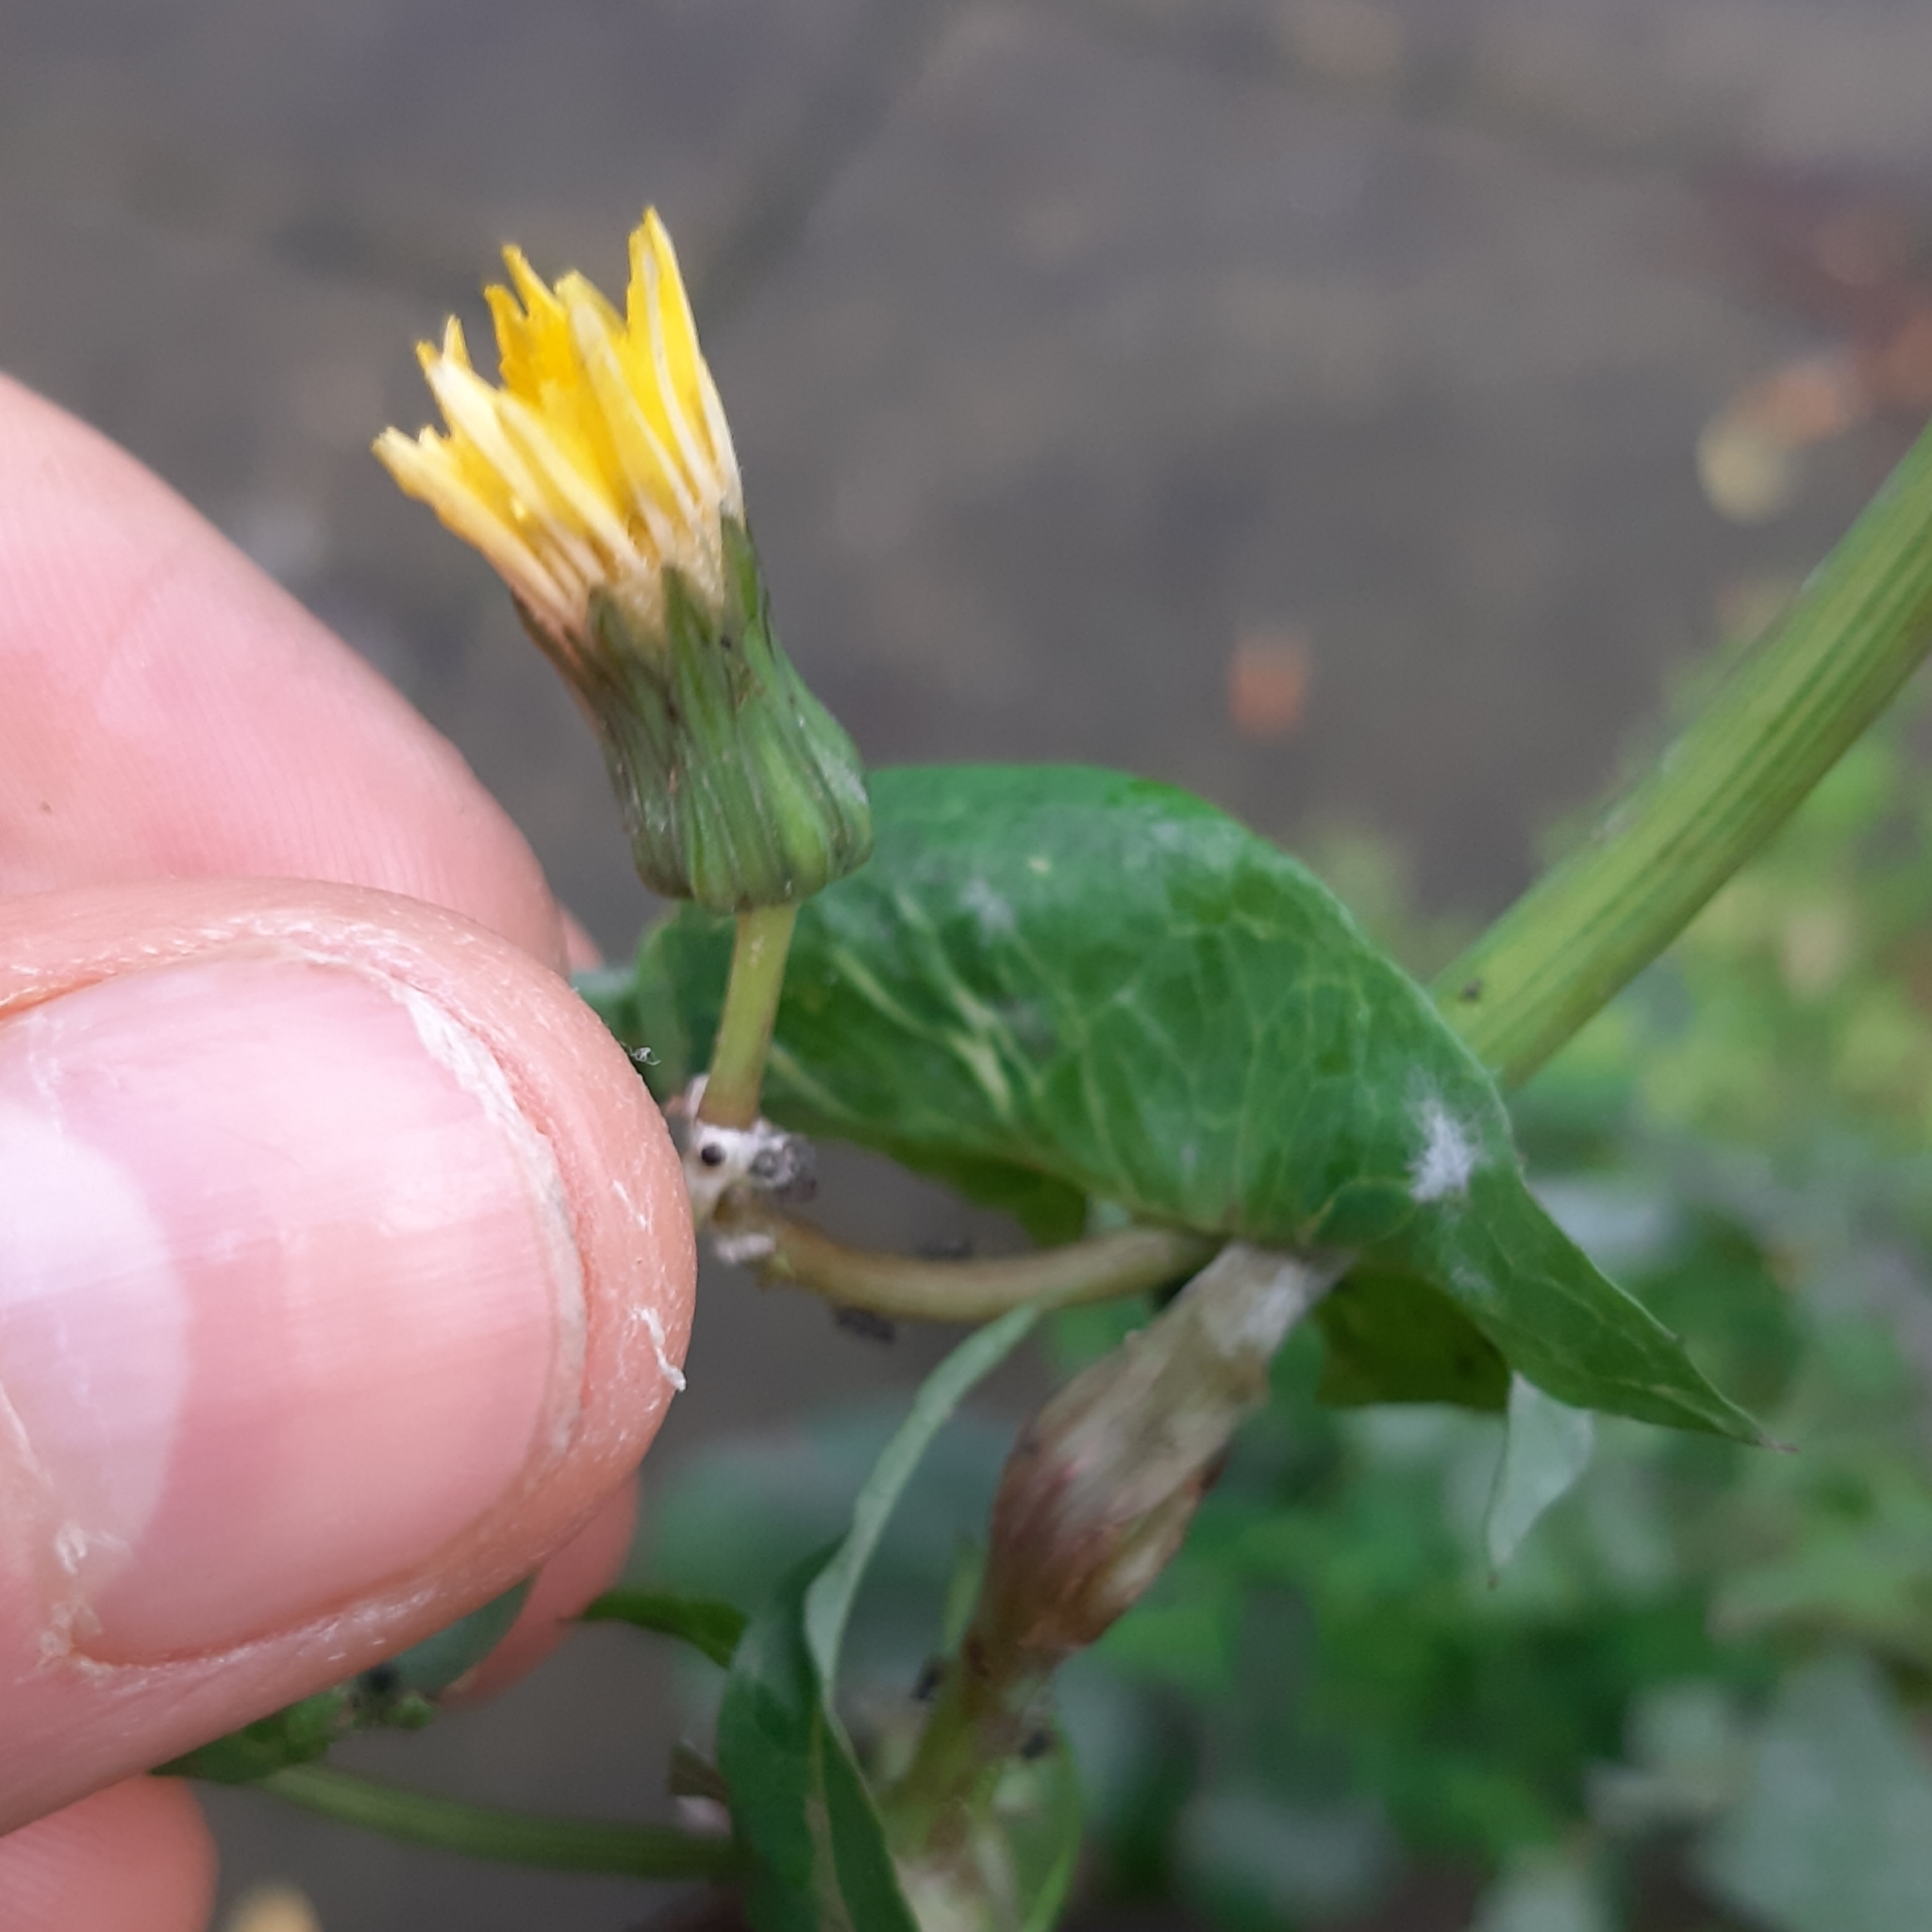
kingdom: Plantae
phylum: Tracheophyta
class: Magnoliopsida
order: Asterales
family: Asteraceae
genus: Sonchus
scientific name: Sonchus oleraceus
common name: Common sowthistle
